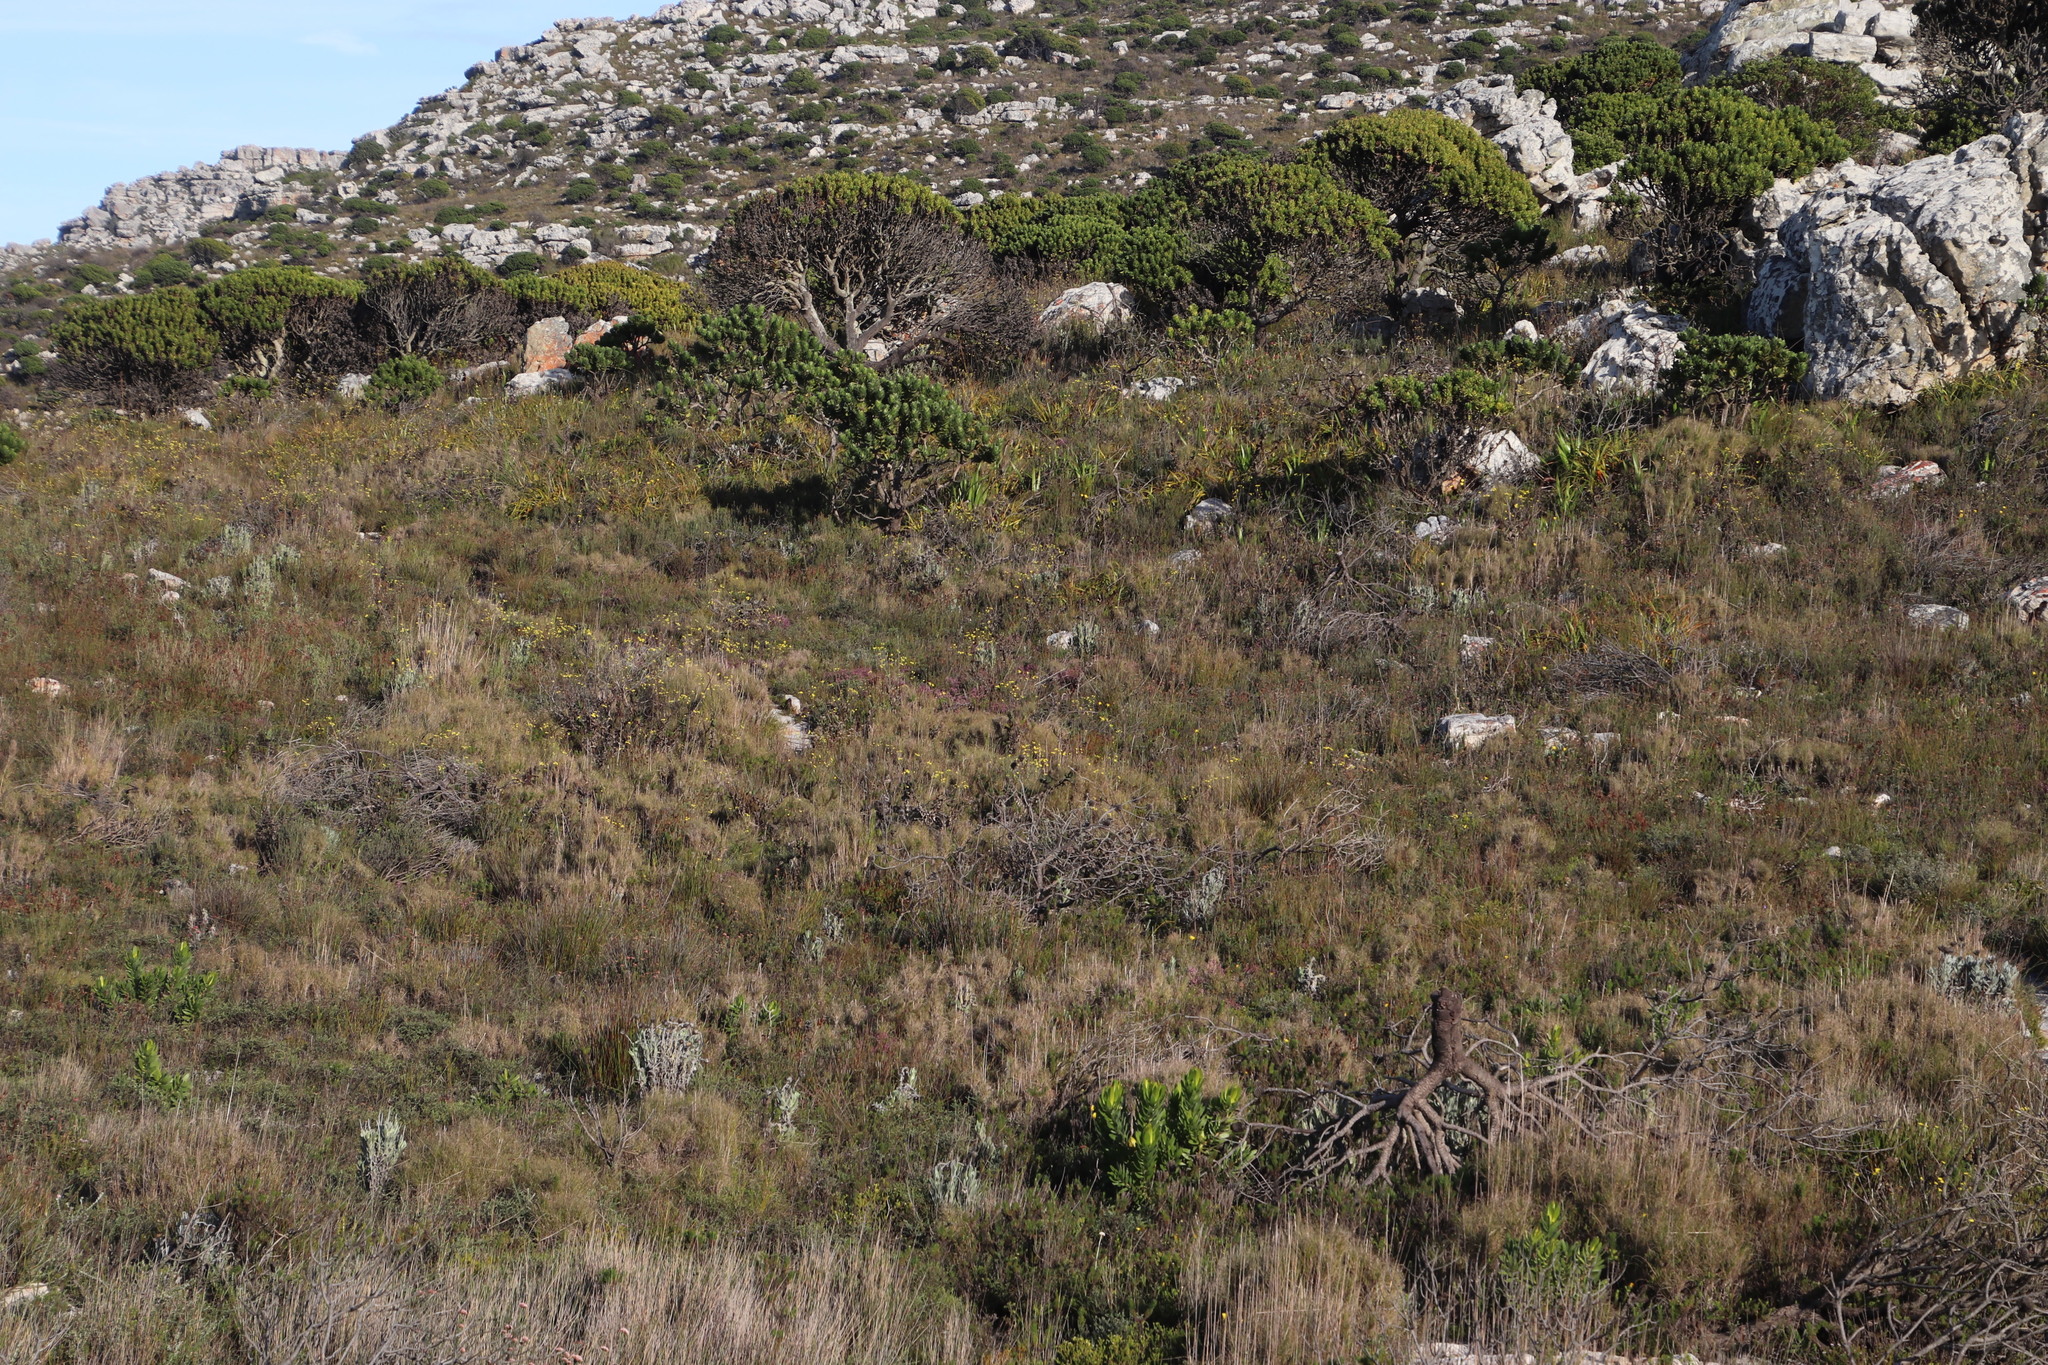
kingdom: Plantae
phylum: Tracheophyta
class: Liliopsida
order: Poales
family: Poaceae
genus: Pseudopentameris
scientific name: Pseudopentameris macrantha
